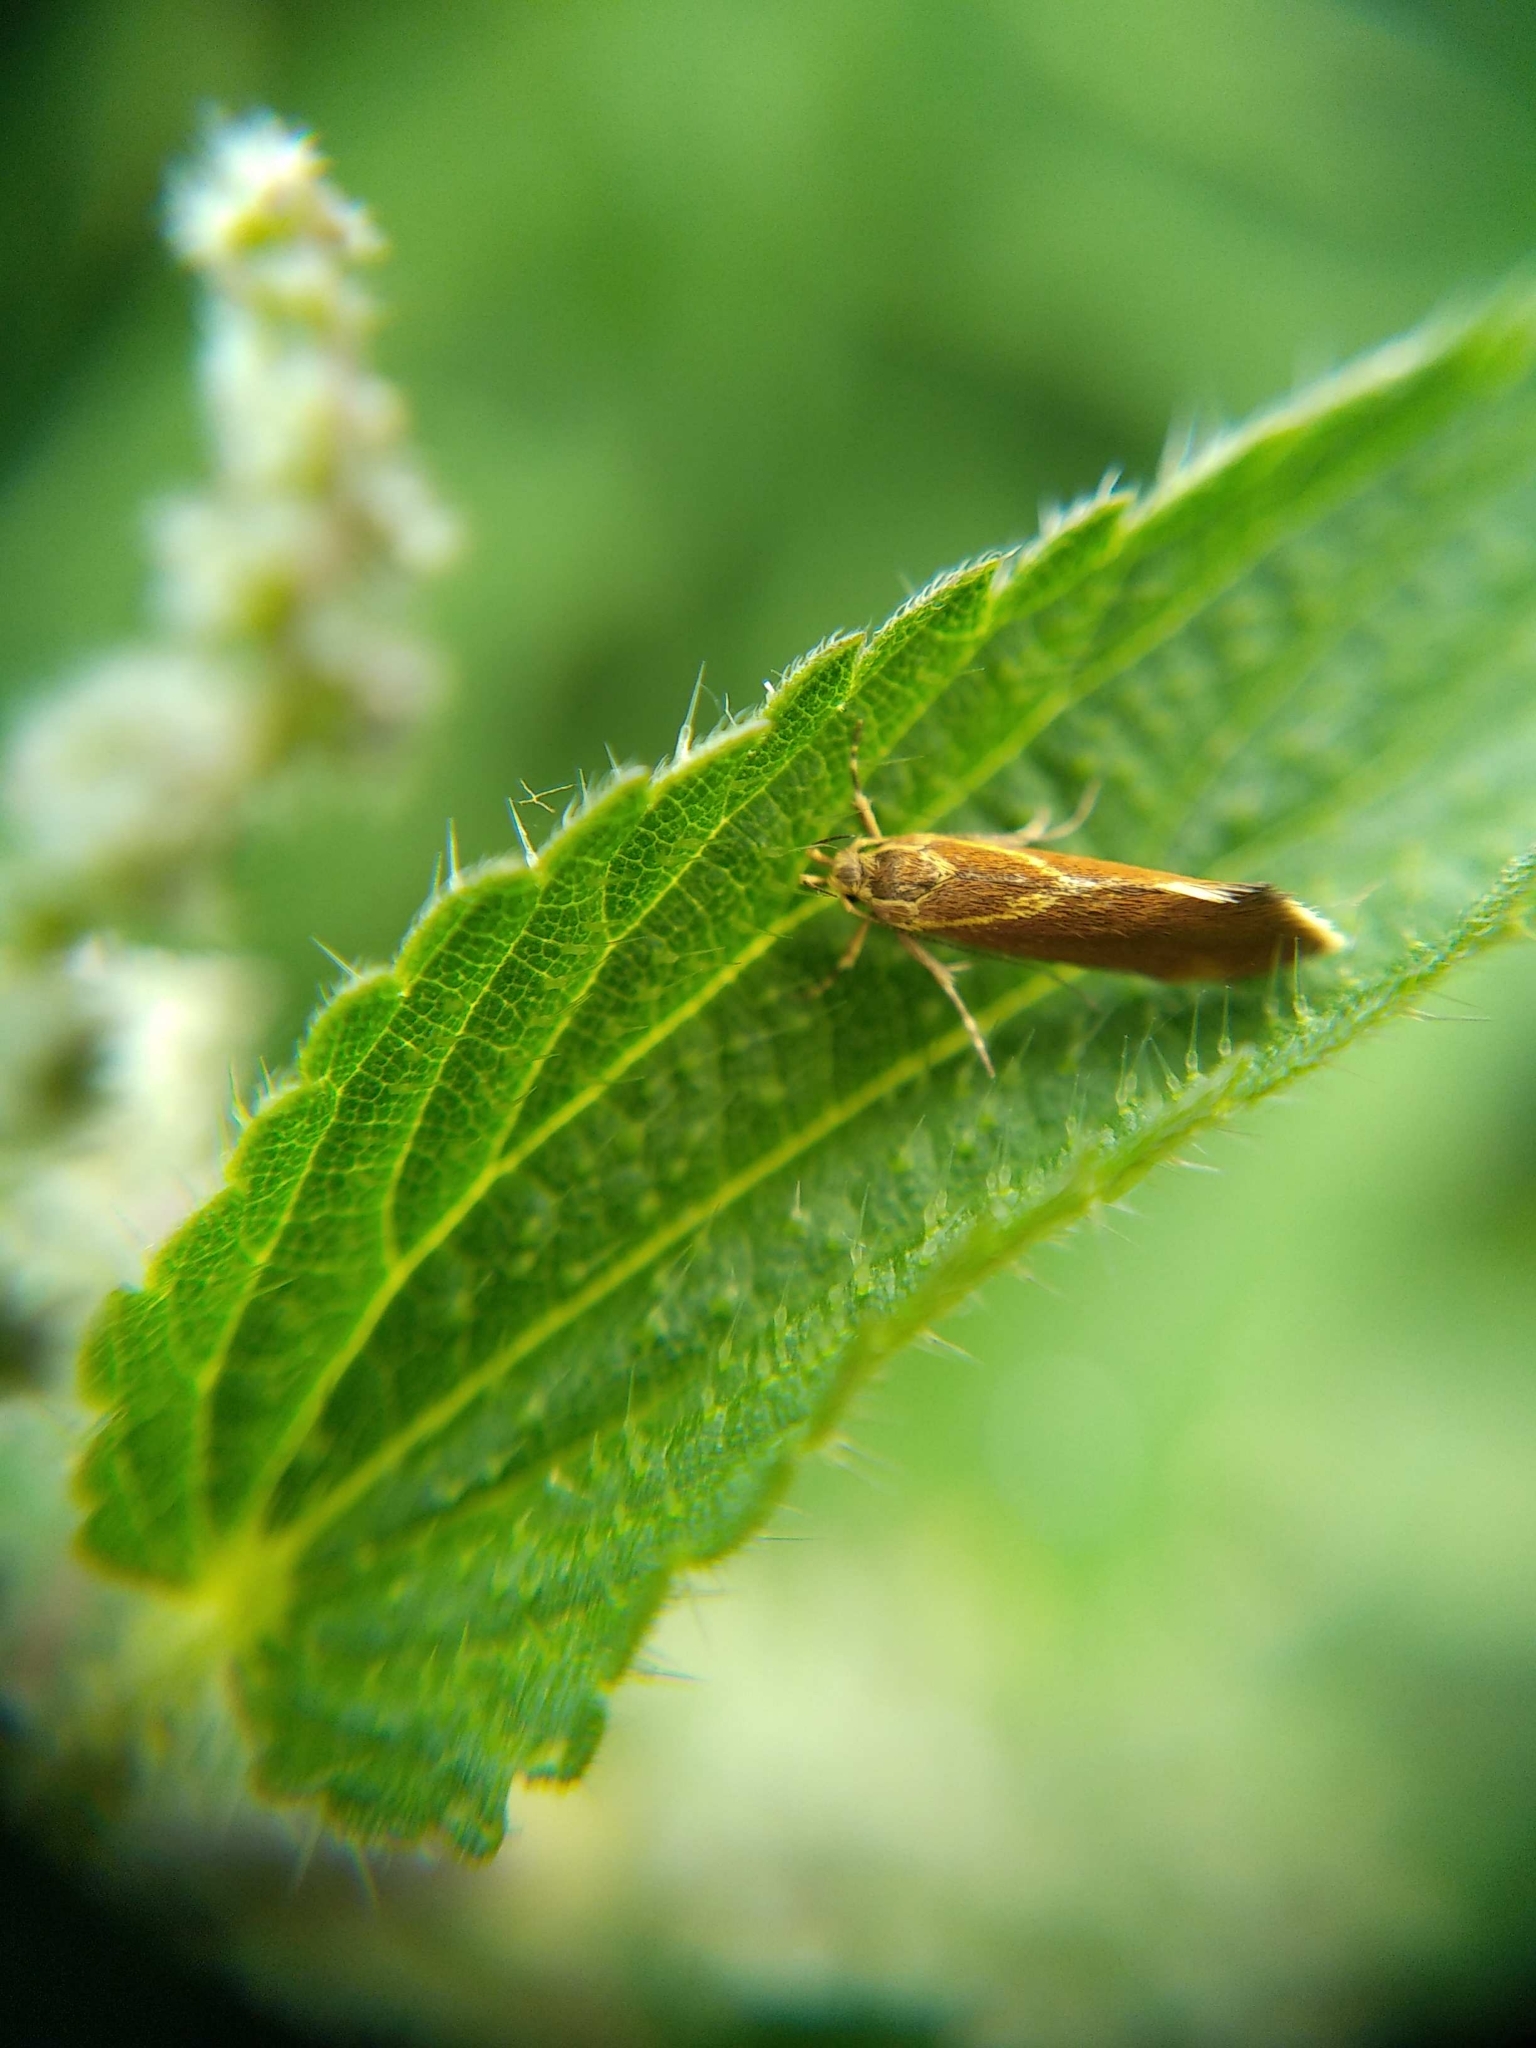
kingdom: Animalia
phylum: Arthropoda
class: Insecta
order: Lepidoptera
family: Oecophoridae
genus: Borkhausenia
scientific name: Borkhausenia italica
